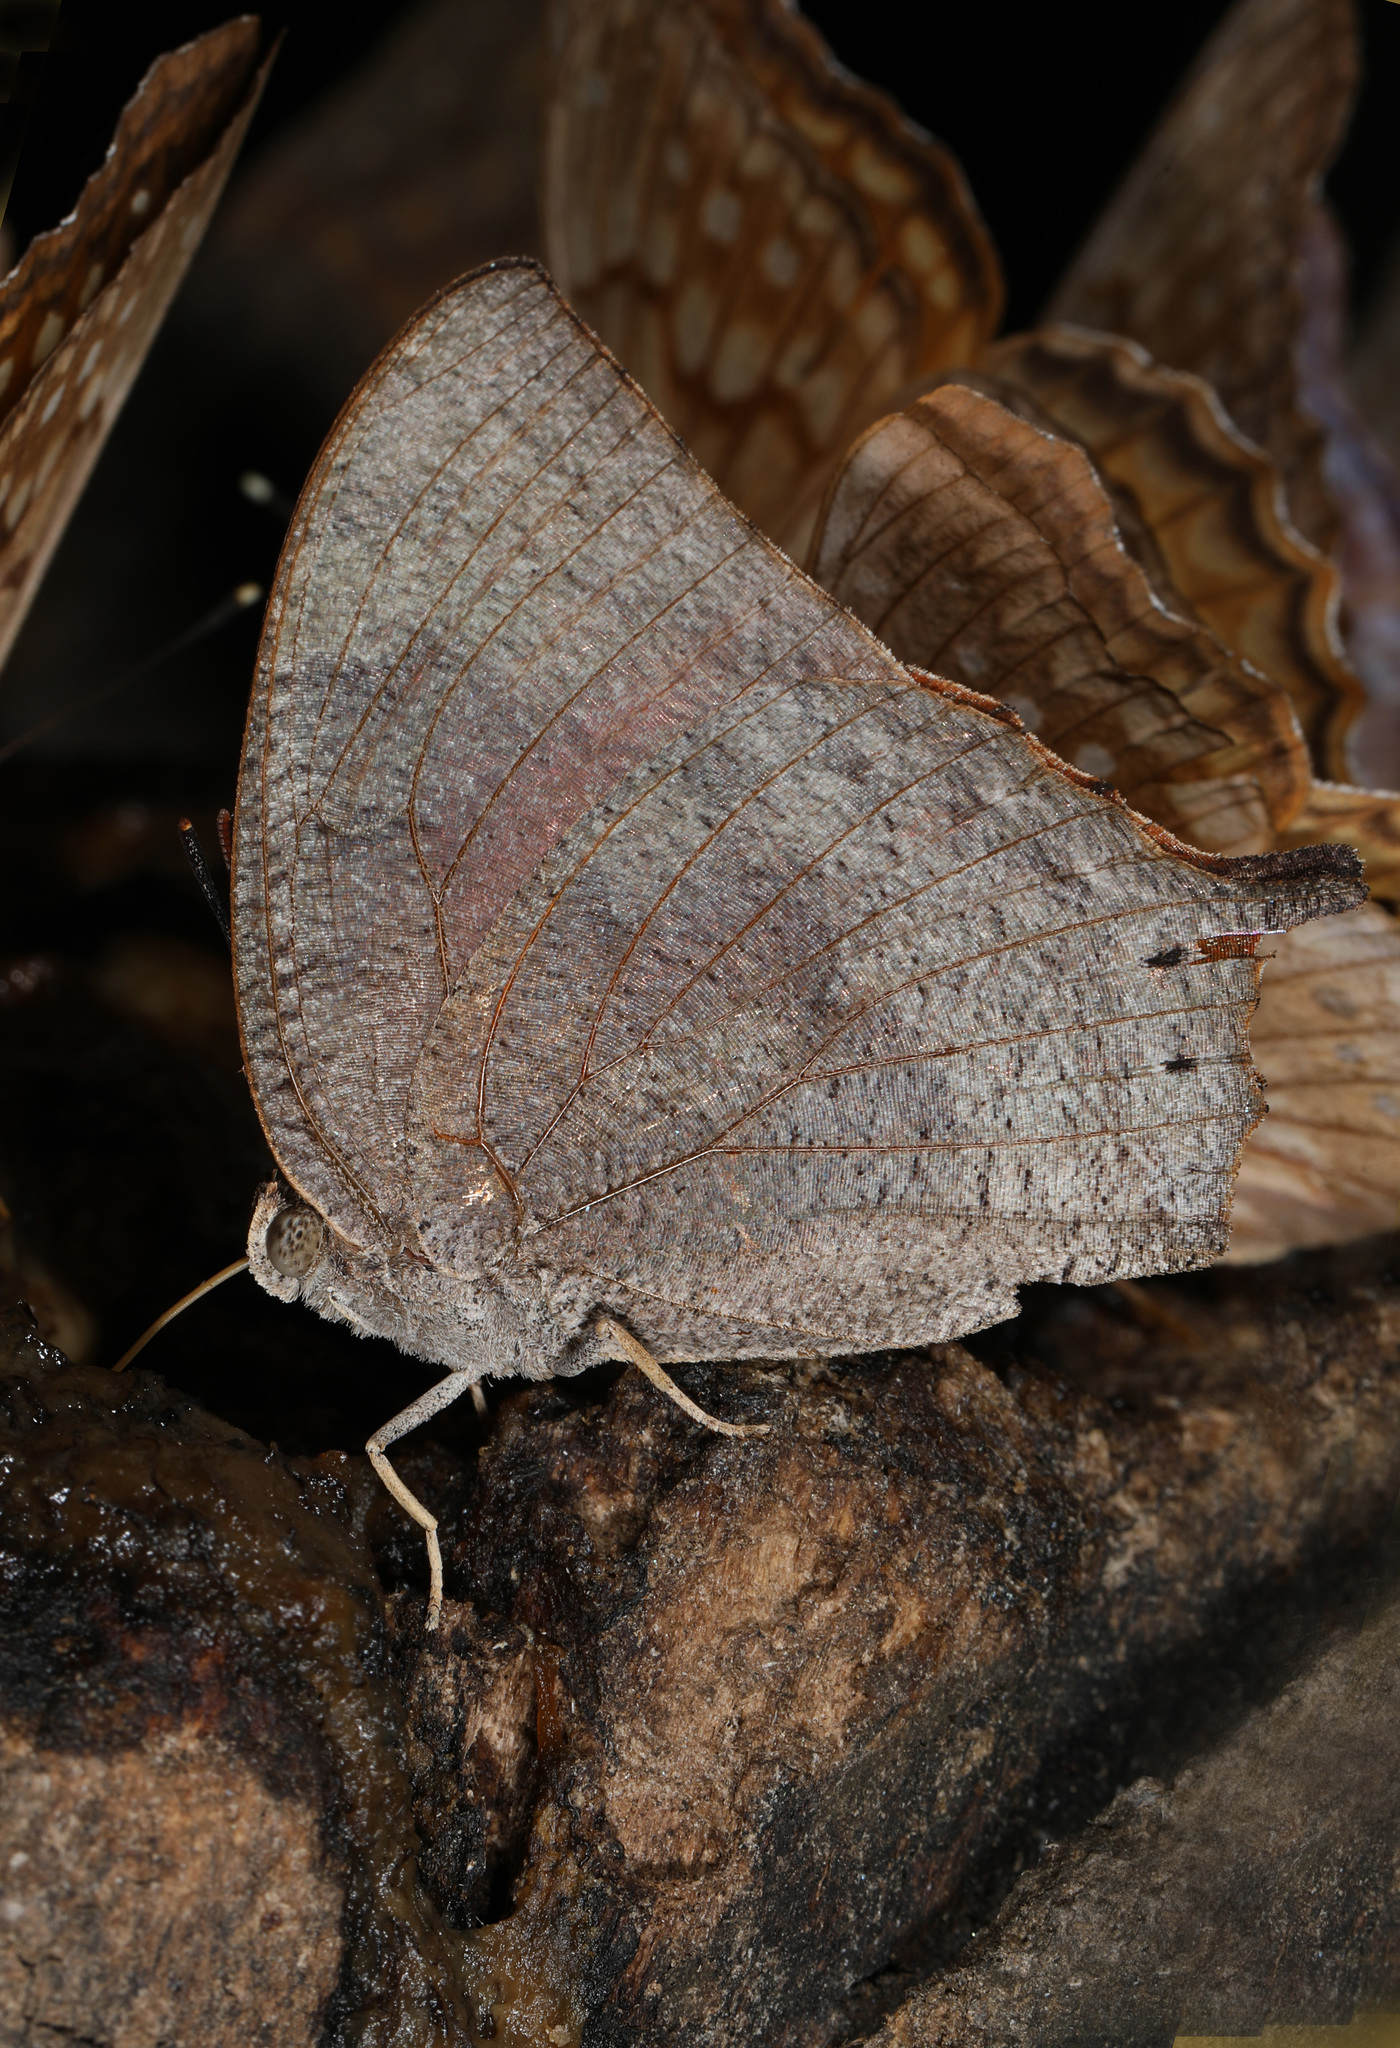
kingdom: Animalia
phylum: Arthropoda
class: Insecta
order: Lepidoptera
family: Nymphalidae
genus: Anaea
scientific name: Anaea aidea
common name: Tropical leafwing
